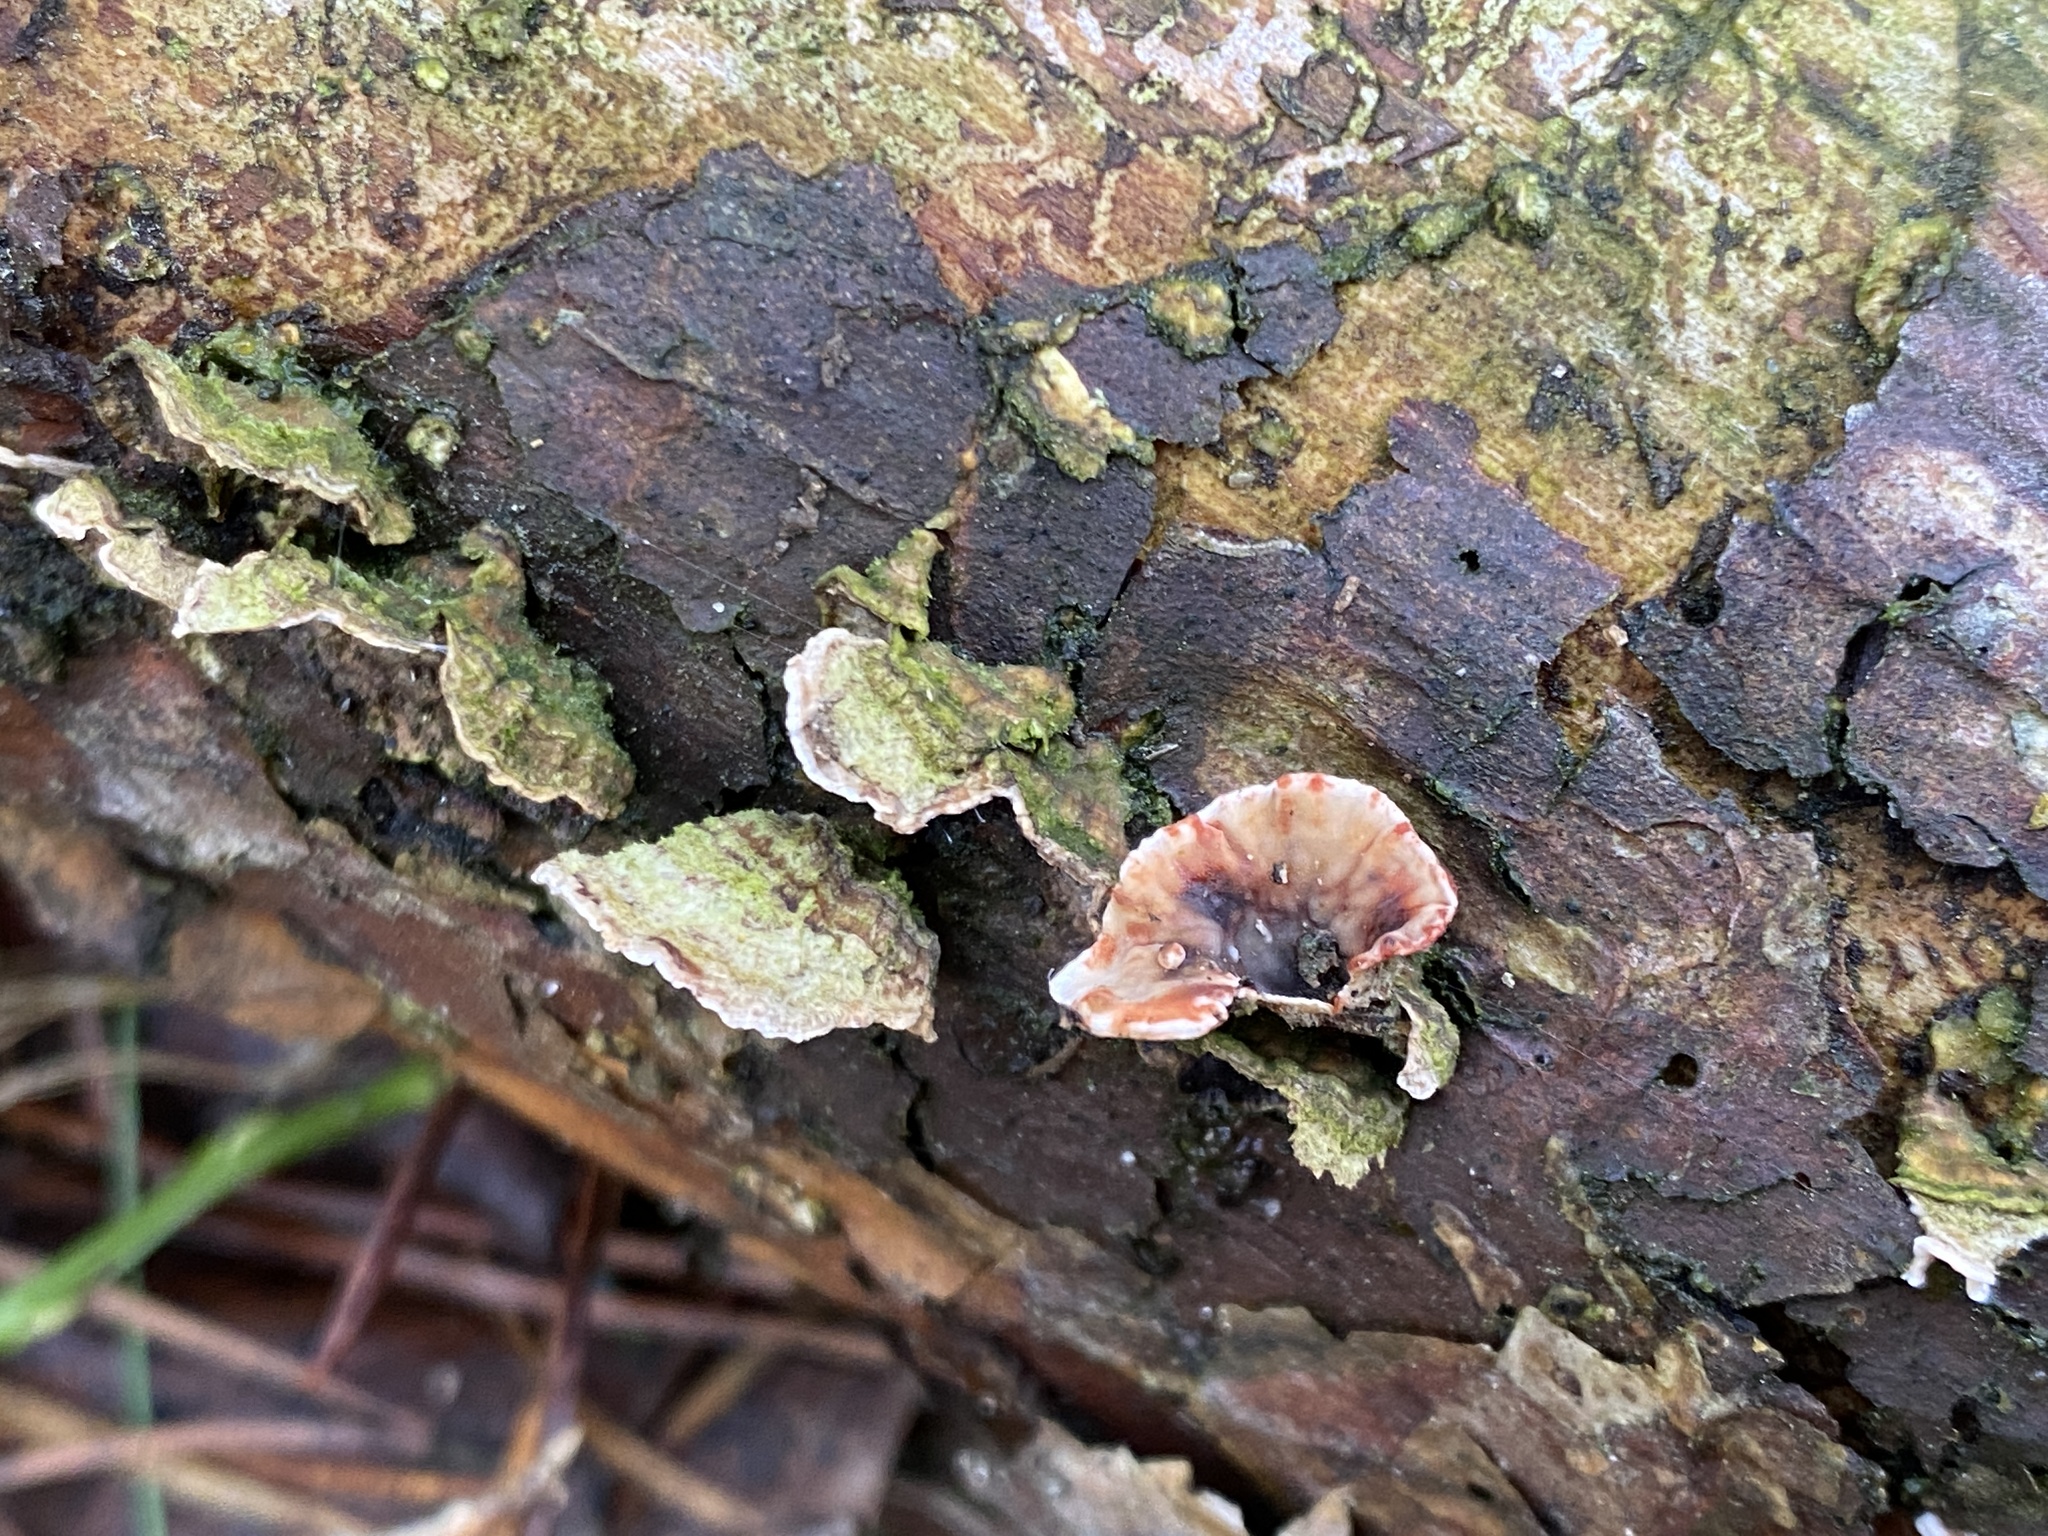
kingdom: Fungi
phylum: Basidiomycota
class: Agaricomycetes
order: Russulales
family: Stereaceae
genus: Stereum
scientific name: Stereum sanguinolentum
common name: Bleeding conifer crust
